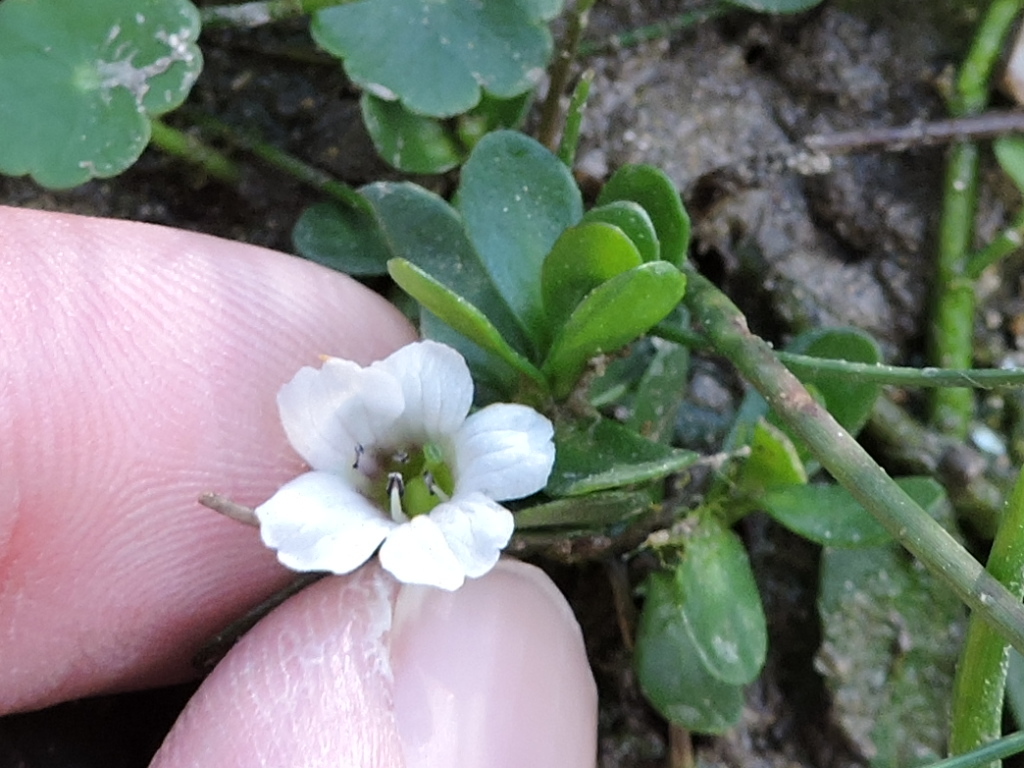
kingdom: Plantae
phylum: Tracheophyta
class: Magnoliopsida
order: Lamiales
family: Plantaginaceae
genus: Bacopa
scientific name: Bacopa monnieri
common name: Indian-pennywort
